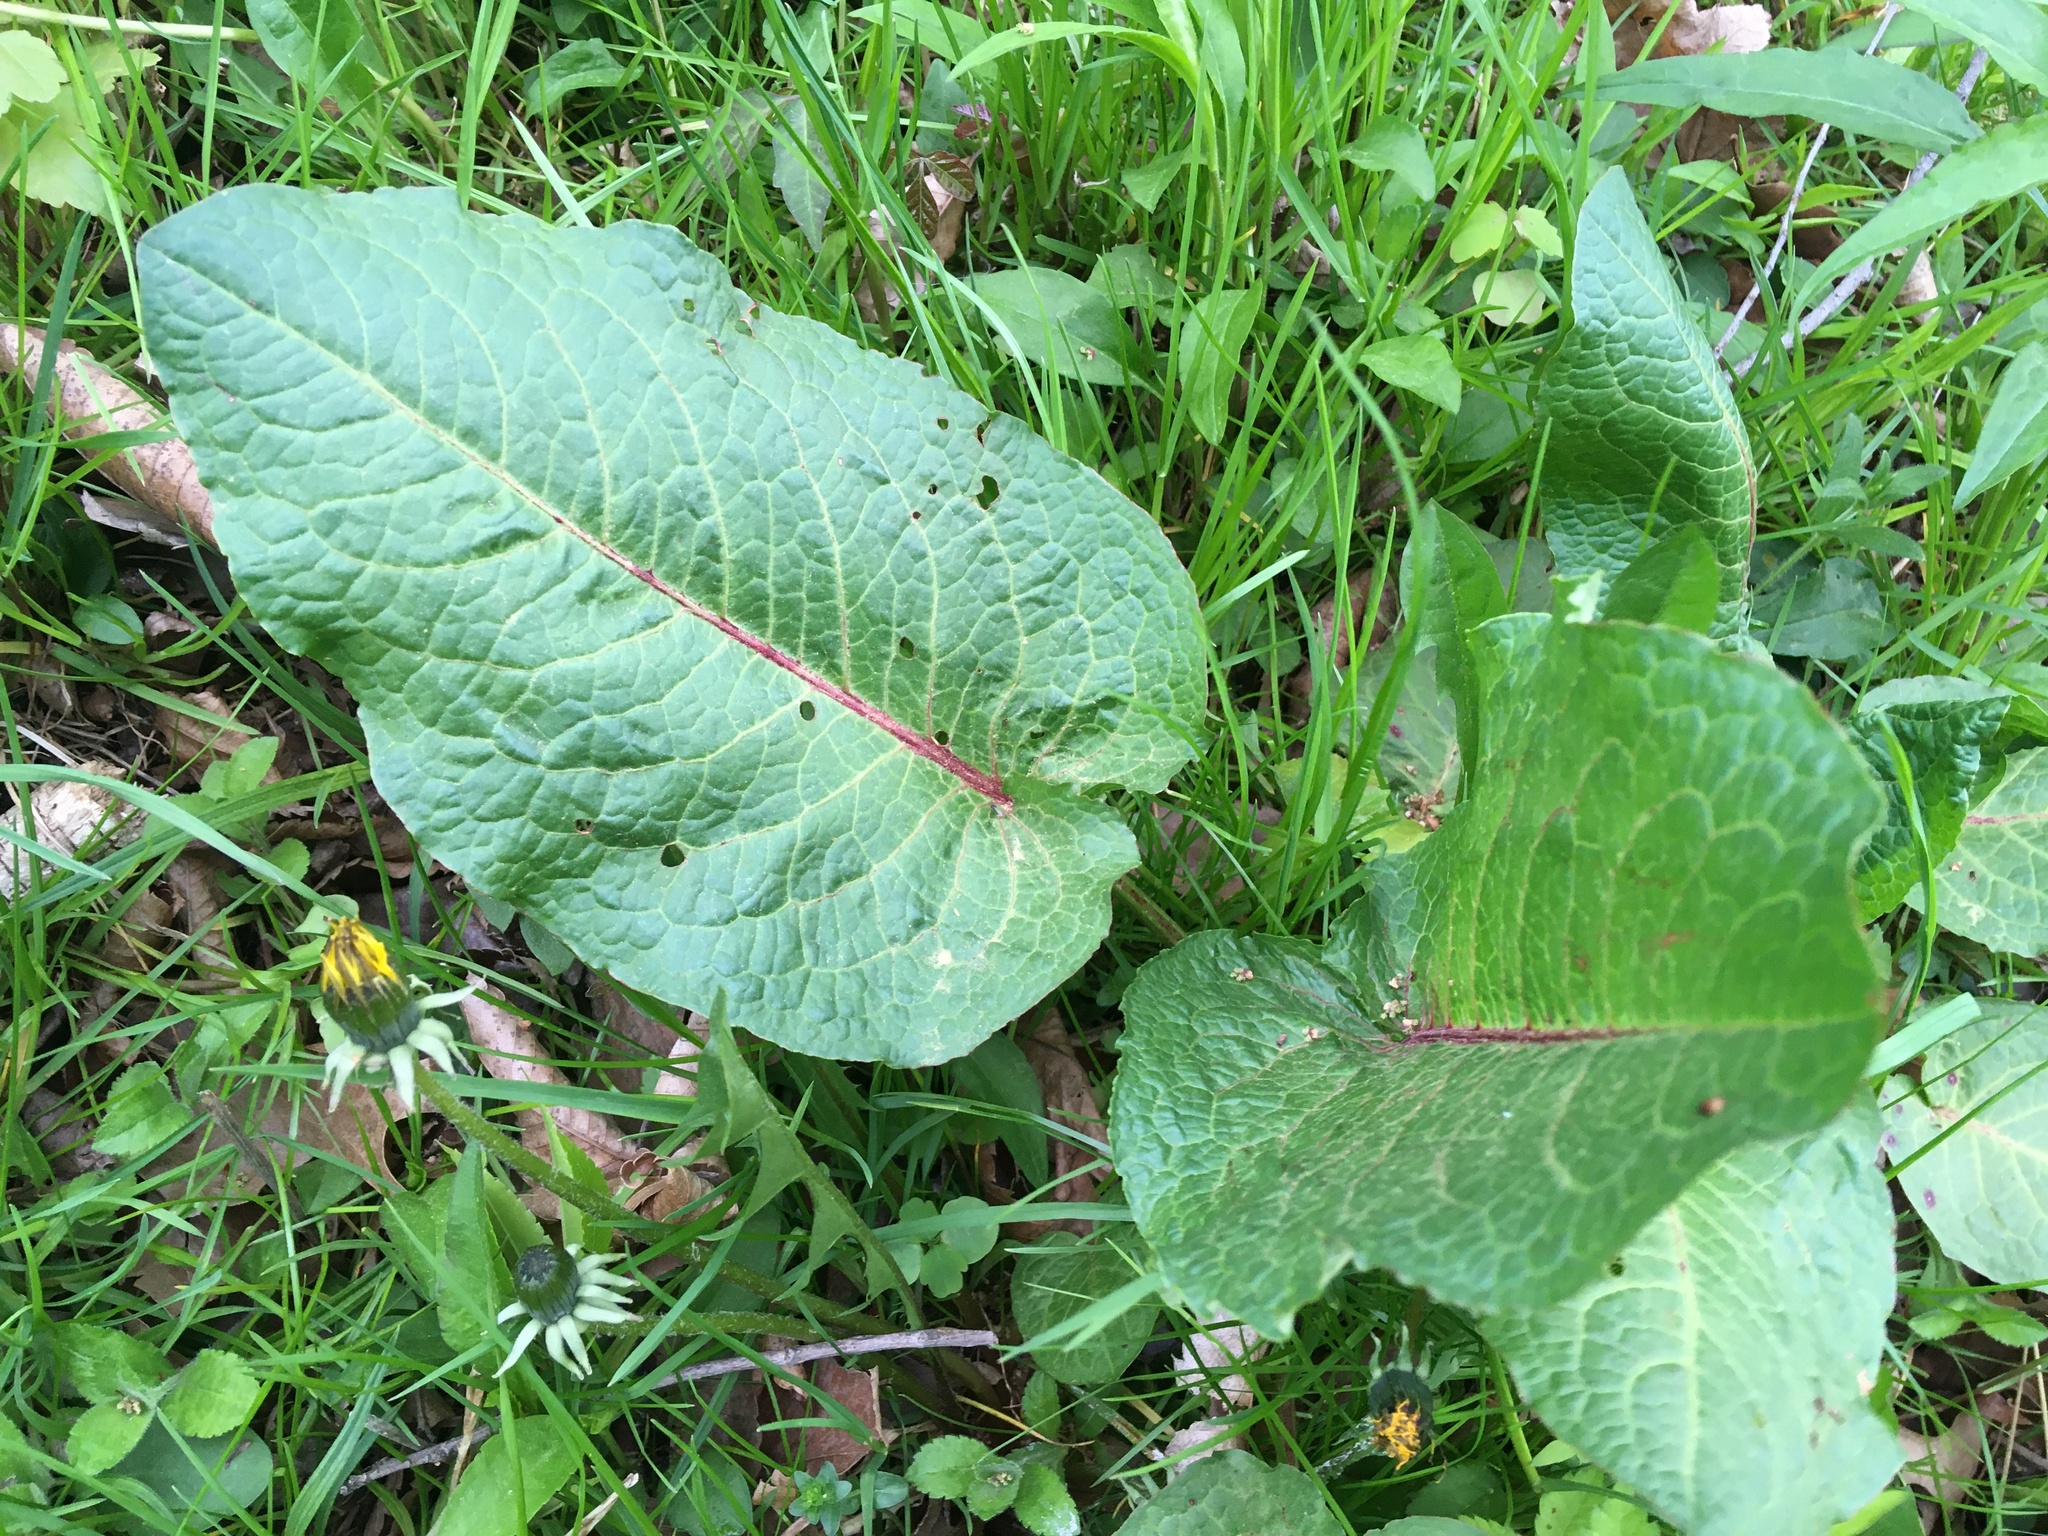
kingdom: Plantae
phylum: Tracheophyta
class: Magnoliopsida
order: Caryophyllales
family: Polygonaceae
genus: Rumex
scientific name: Rumex obtusifolius
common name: Bitter dock
